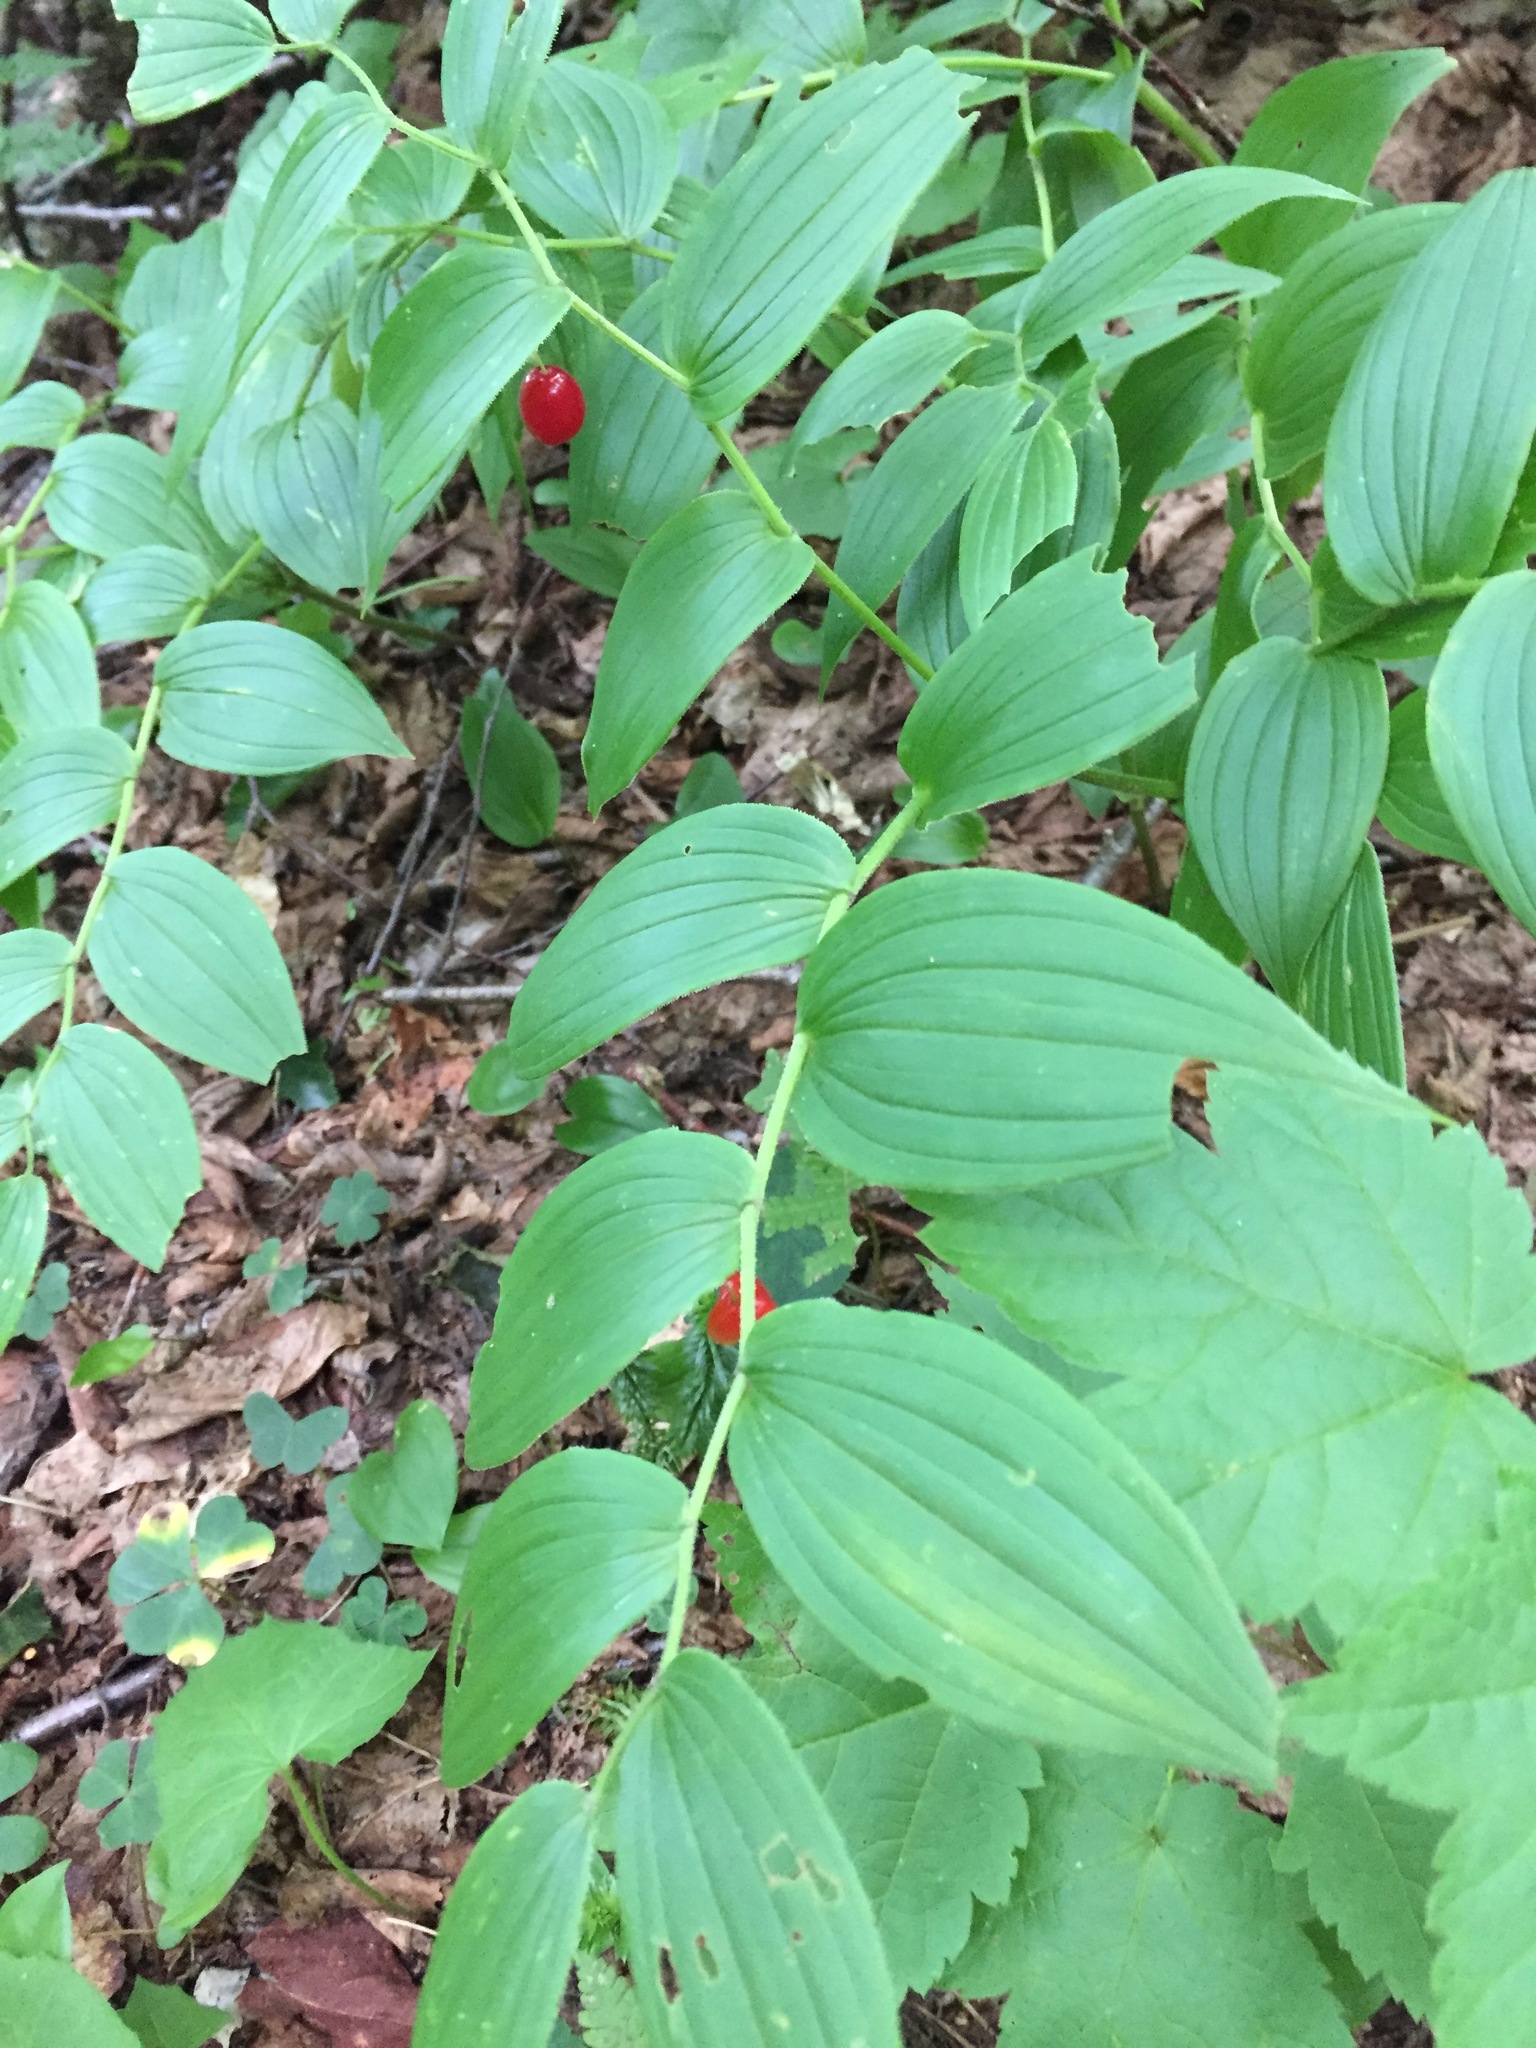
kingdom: Plantae
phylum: Tracheophyta
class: Liliopsida
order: Liliales
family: Liliaceae
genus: Streptopus
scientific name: Streptopus lanceolatus
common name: Rose mandarin
